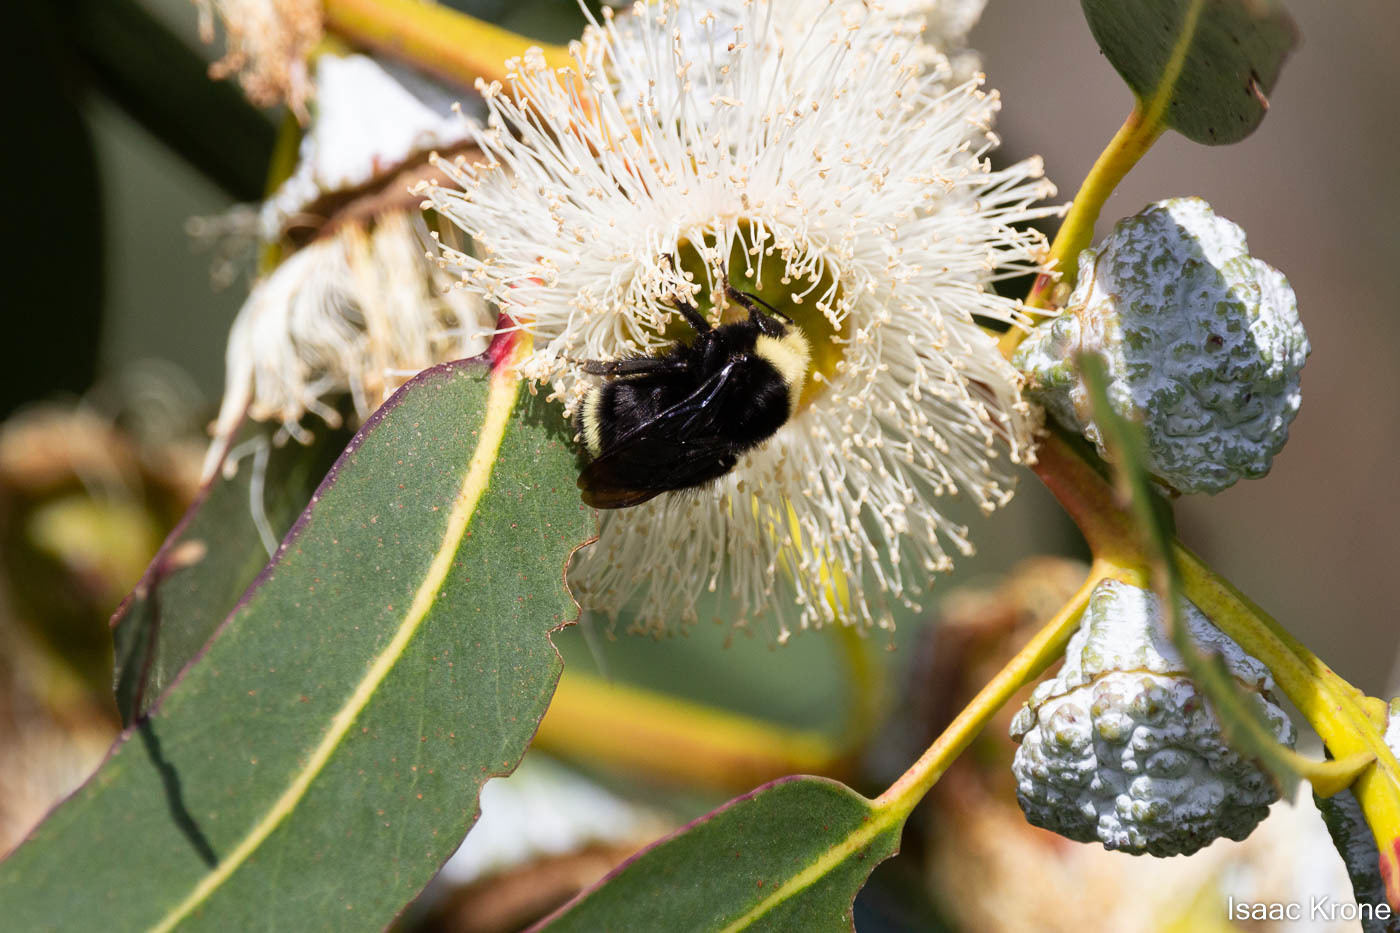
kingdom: Animalia
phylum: Arthropoda
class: Insecta
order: Hymenoptera
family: Apidae
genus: Pyrobombus
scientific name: Pyrobombus
